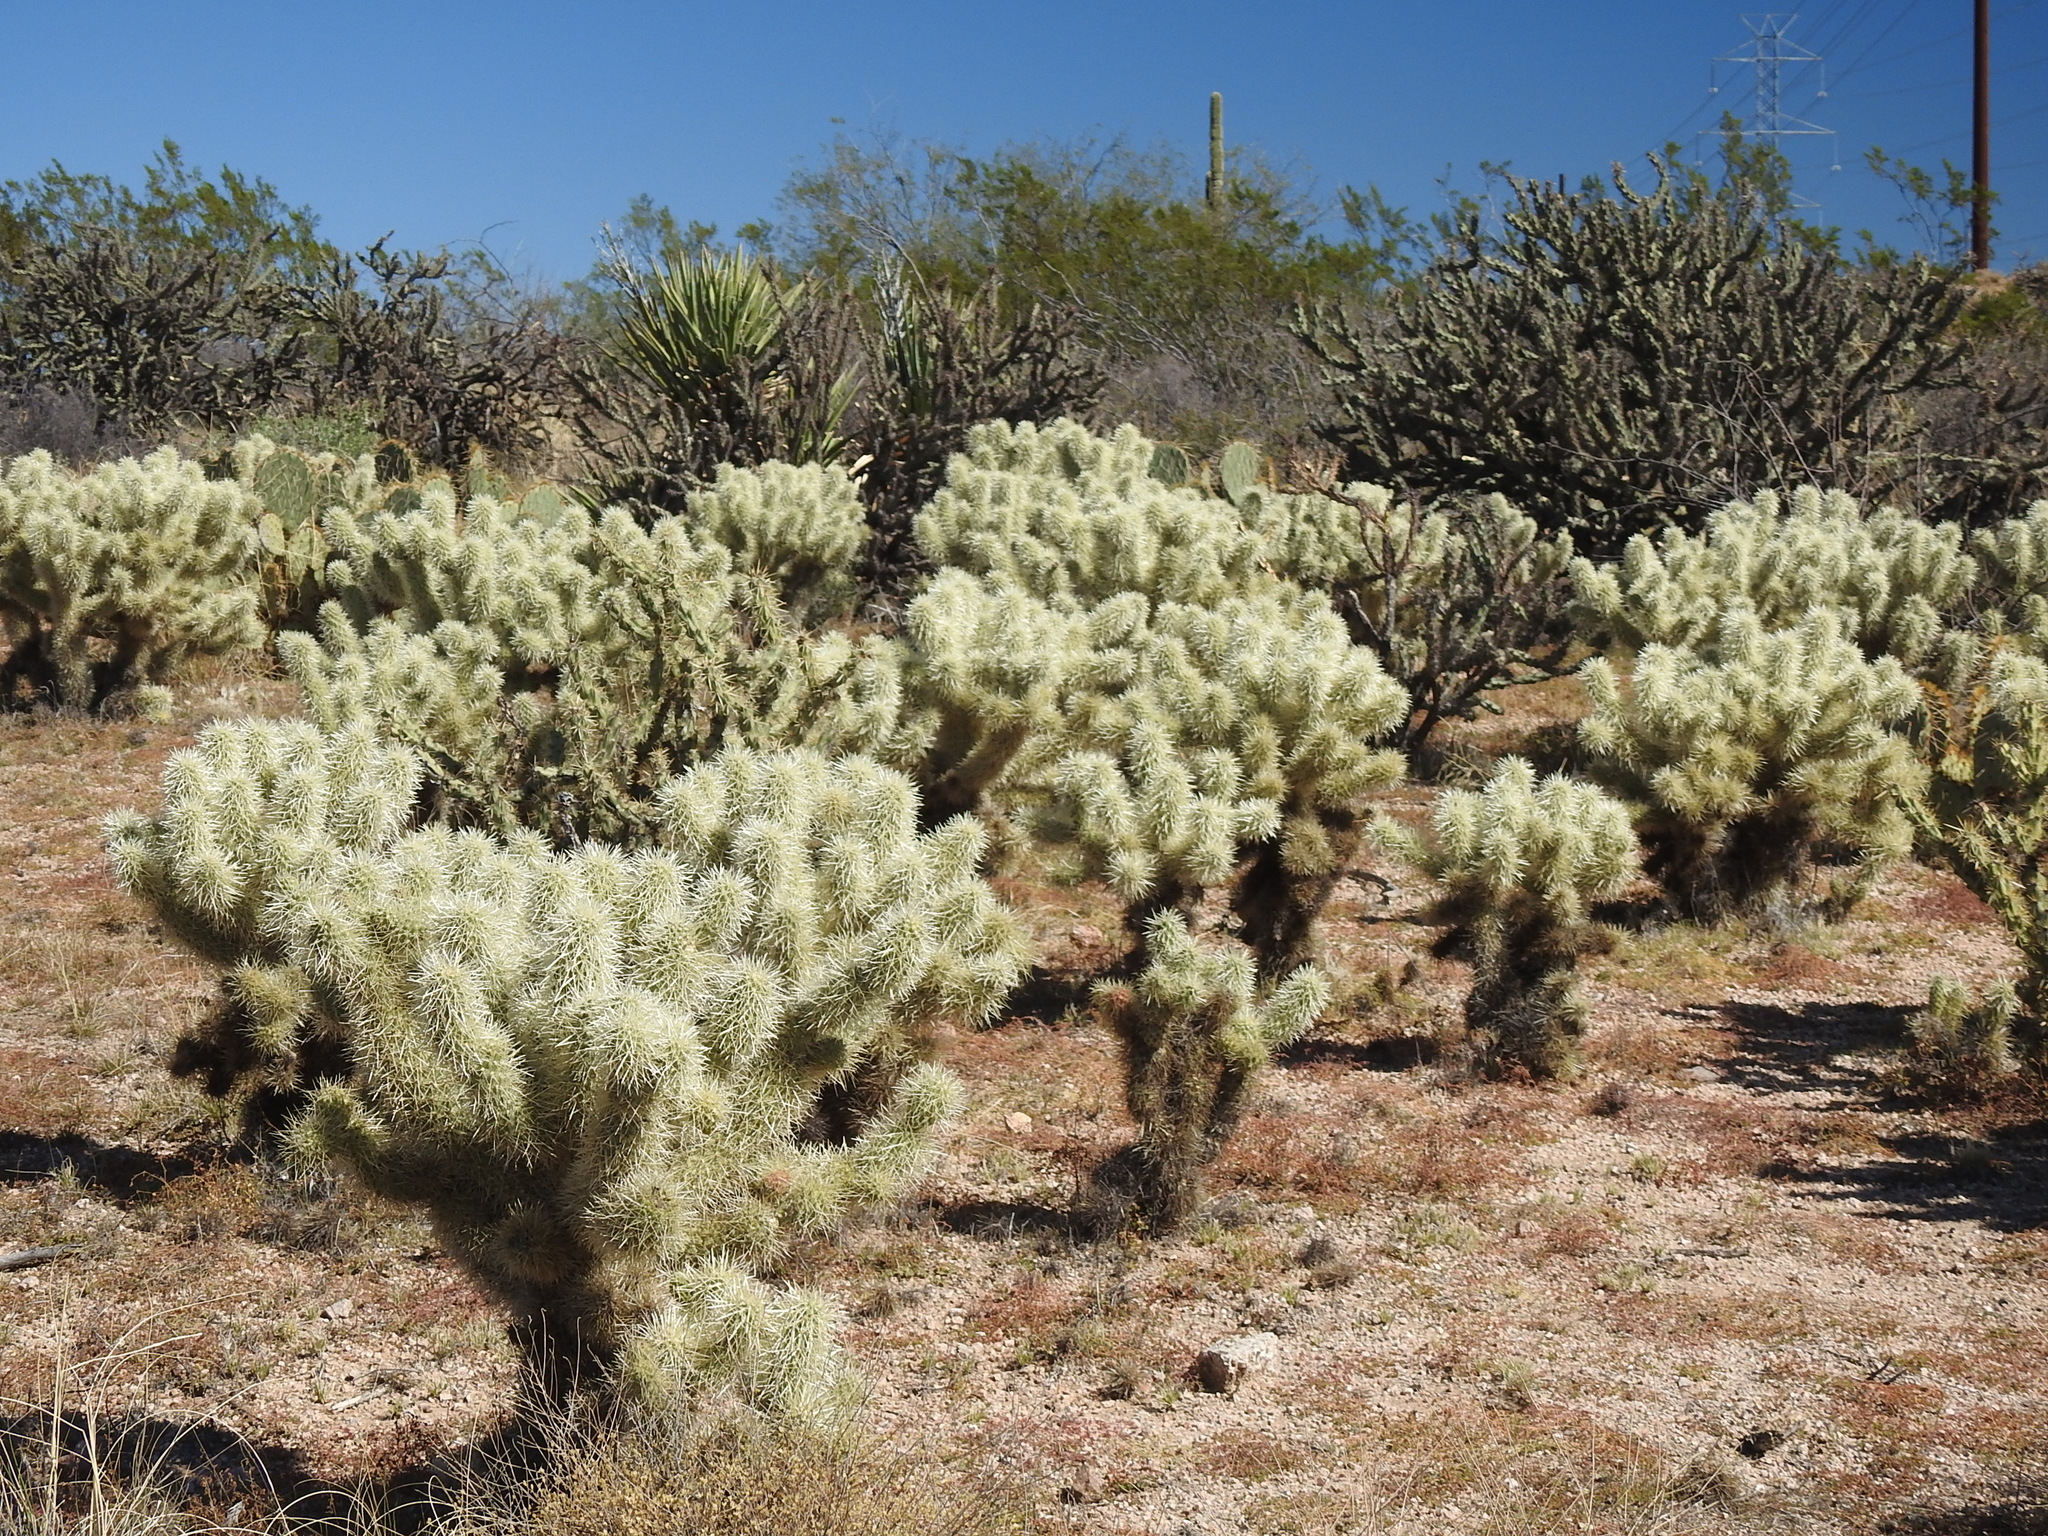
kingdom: Plantae
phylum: Tracheophyta
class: Magnoliopsida
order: Caryophyllales
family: Cactaceae
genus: Cylindropuntia
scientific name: Cylindropuntia fosbergii
